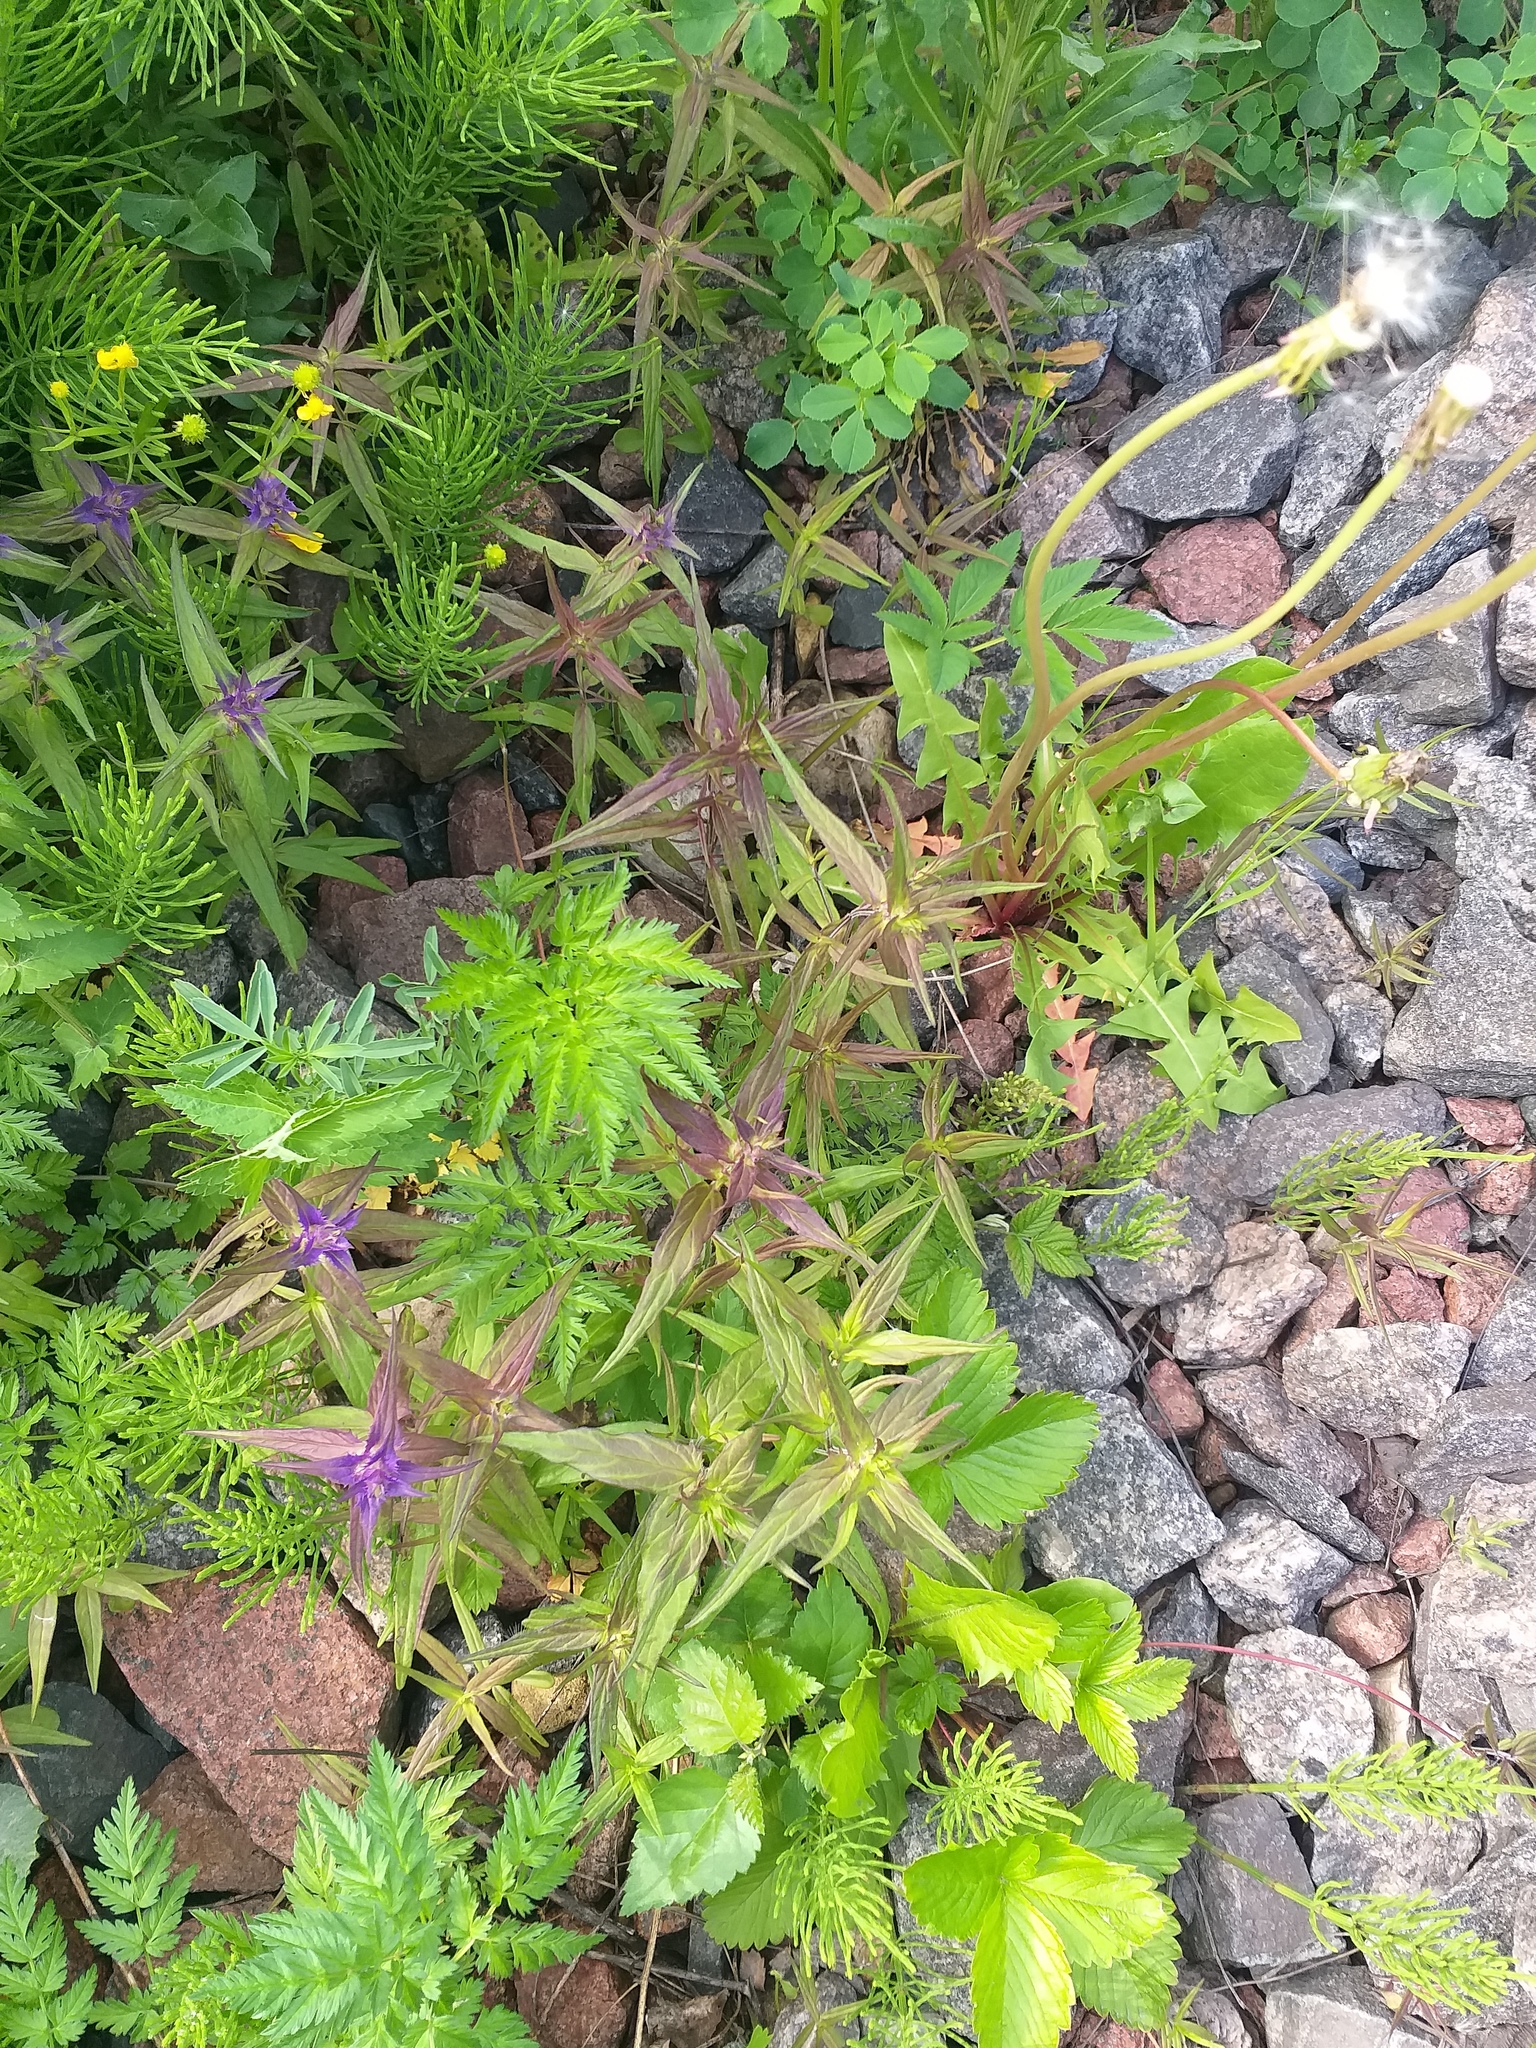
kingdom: Plantae
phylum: Tracheophyta
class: Magnoliopsida
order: Lamiales
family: Orobanchaceae
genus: Melampyrum
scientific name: Melampyrum nemorosum
